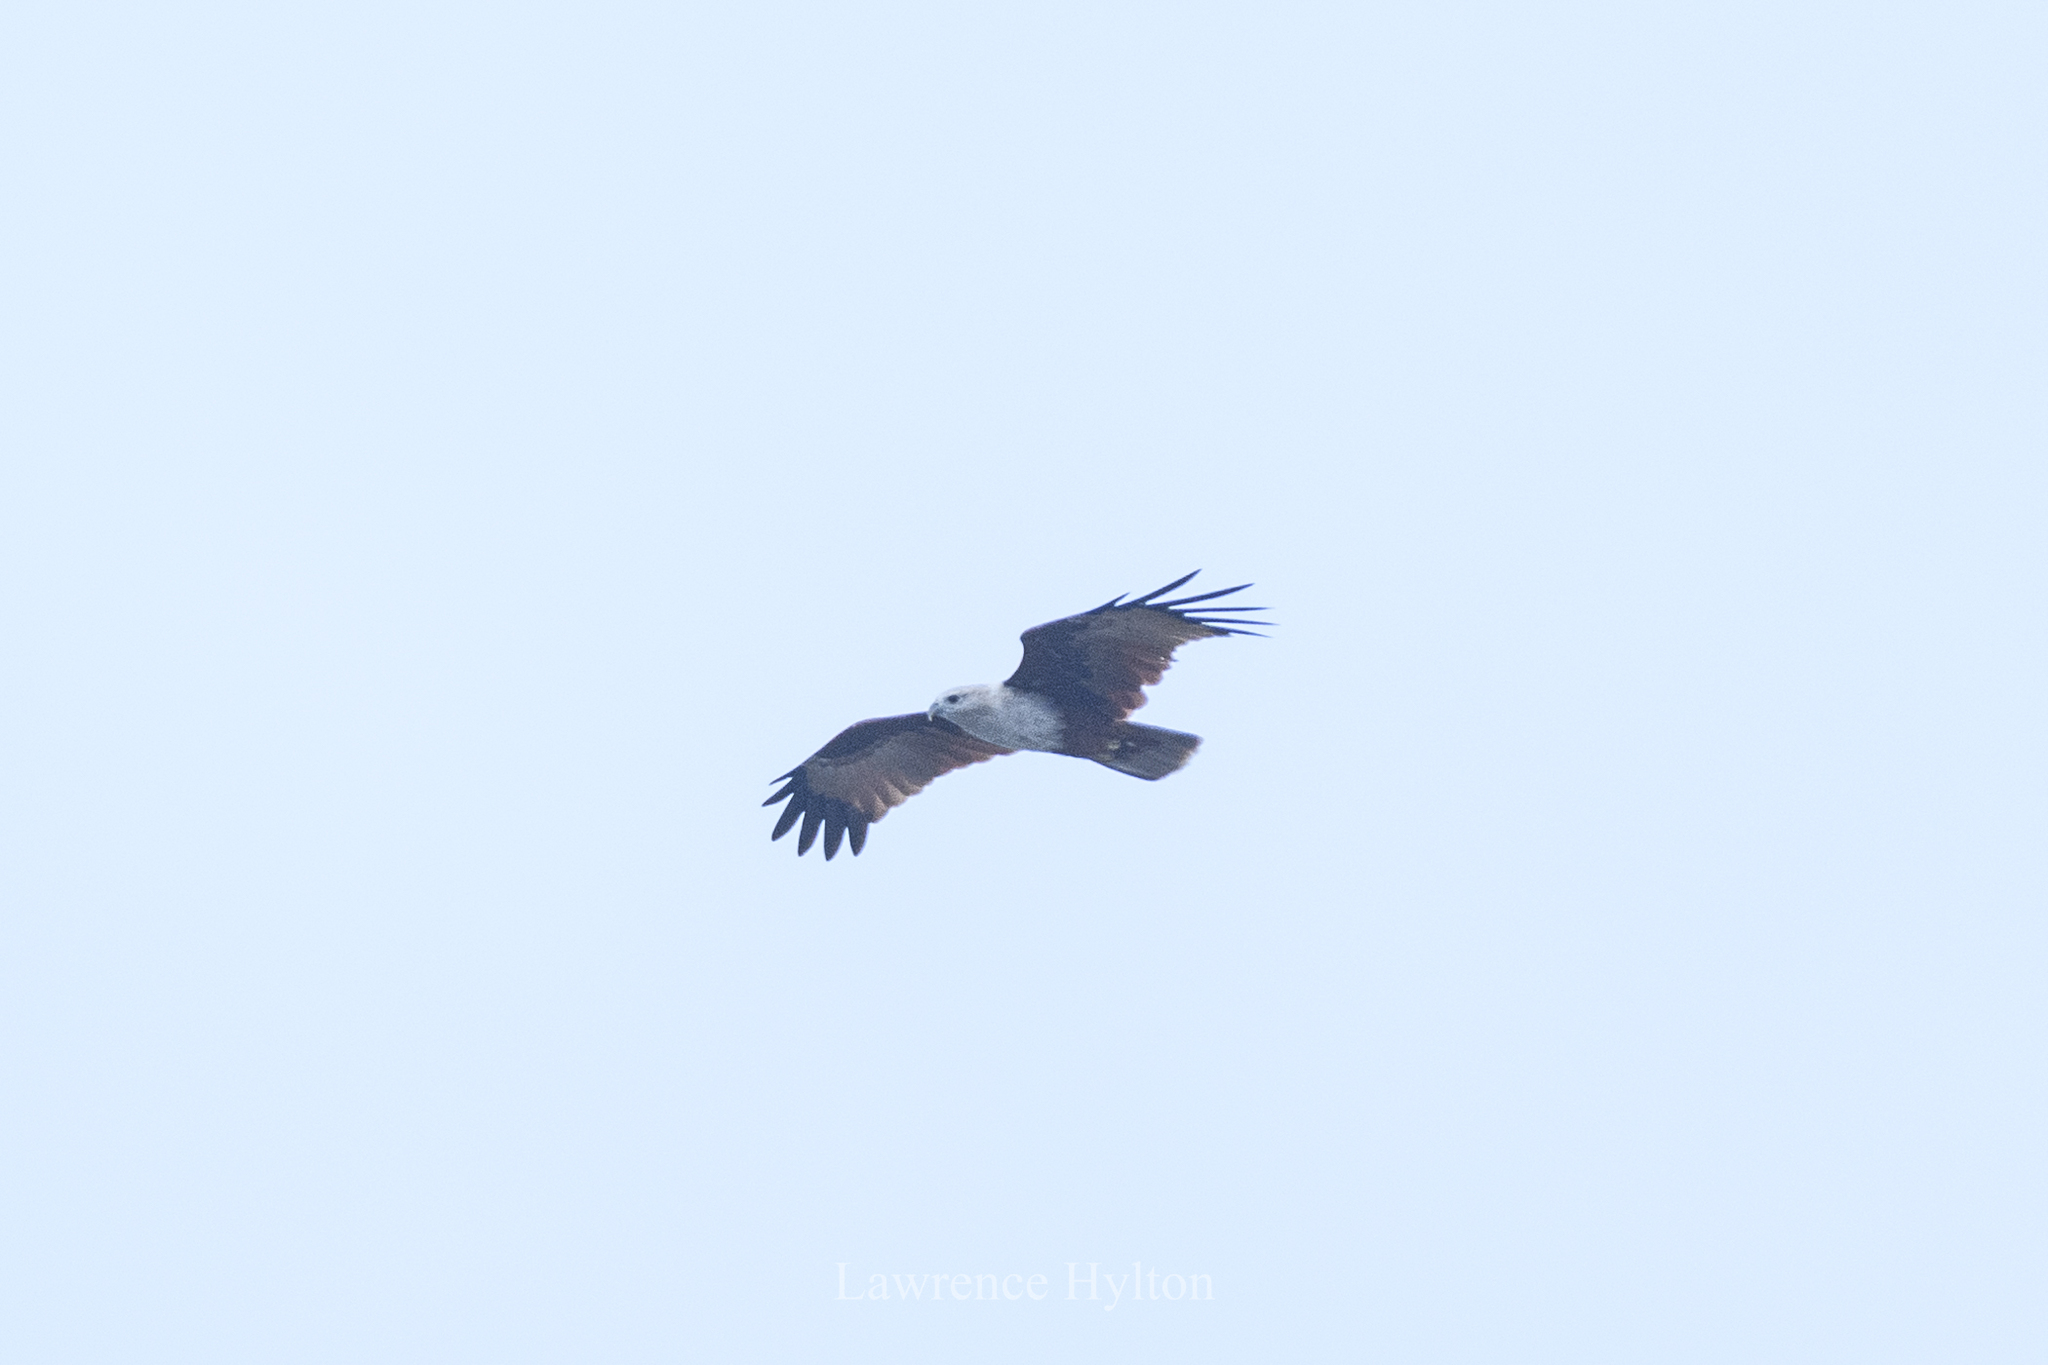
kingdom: Animalia
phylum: Chordata
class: Aves
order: Accipitriformes
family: Accipitridae
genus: Haliastur
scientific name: Haliastur indus
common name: Brahminy kite
